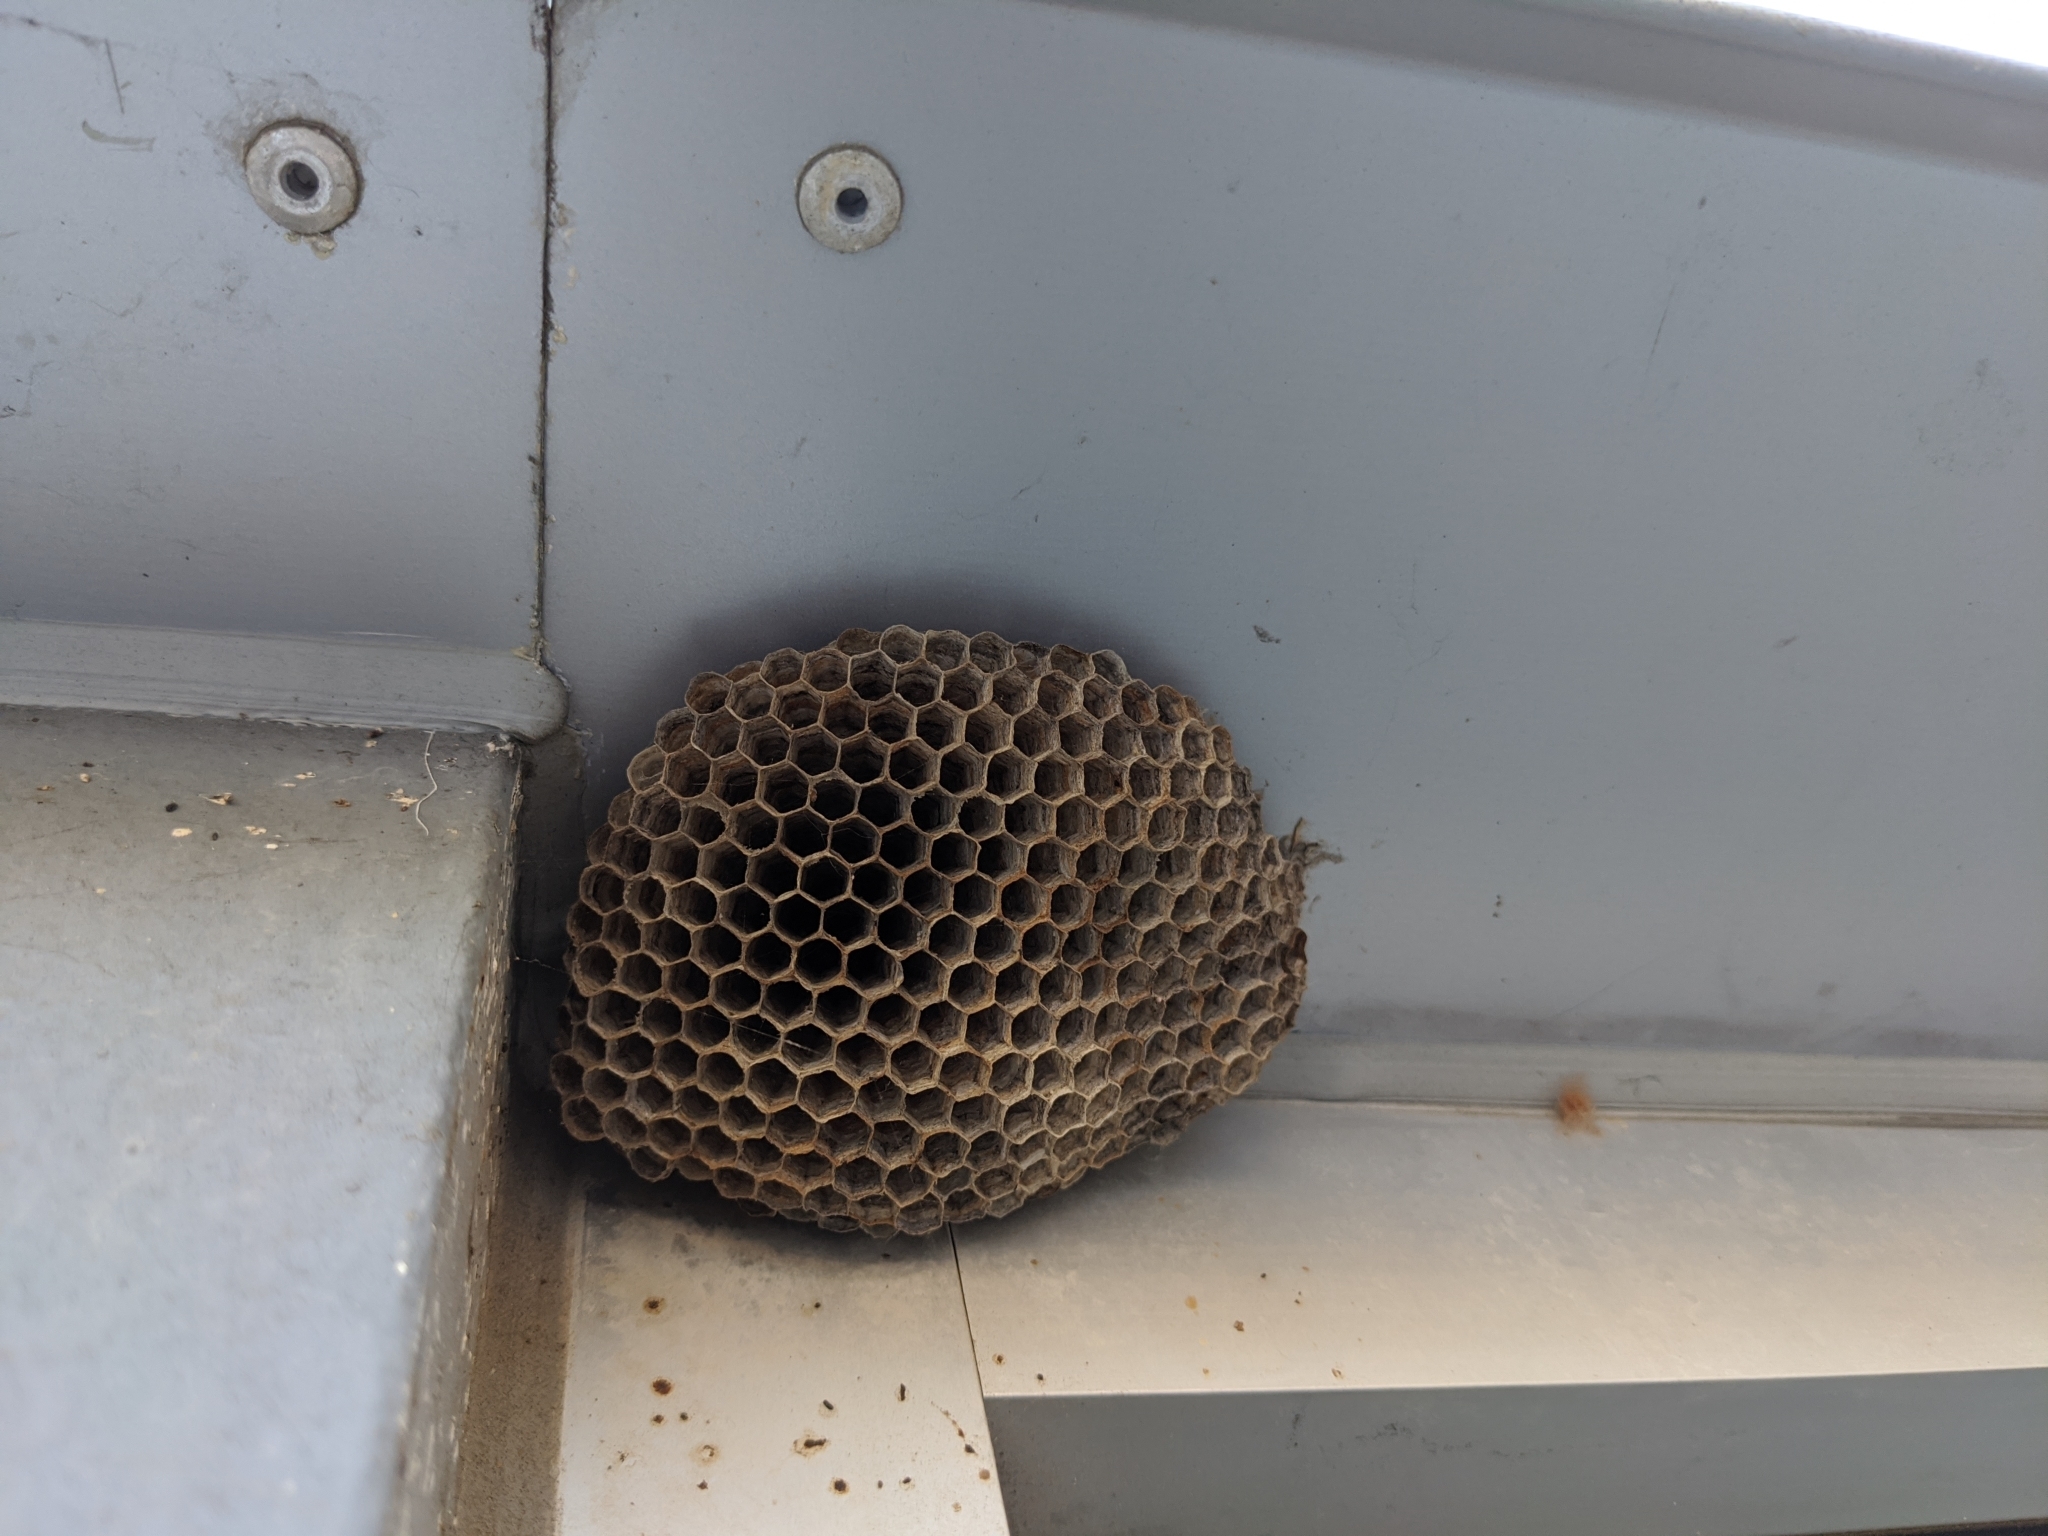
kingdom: Animalia
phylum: Arthropoda
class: Insecta
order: Hymenoptera
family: Eumenidae
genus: Polistes
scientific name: Polistes
